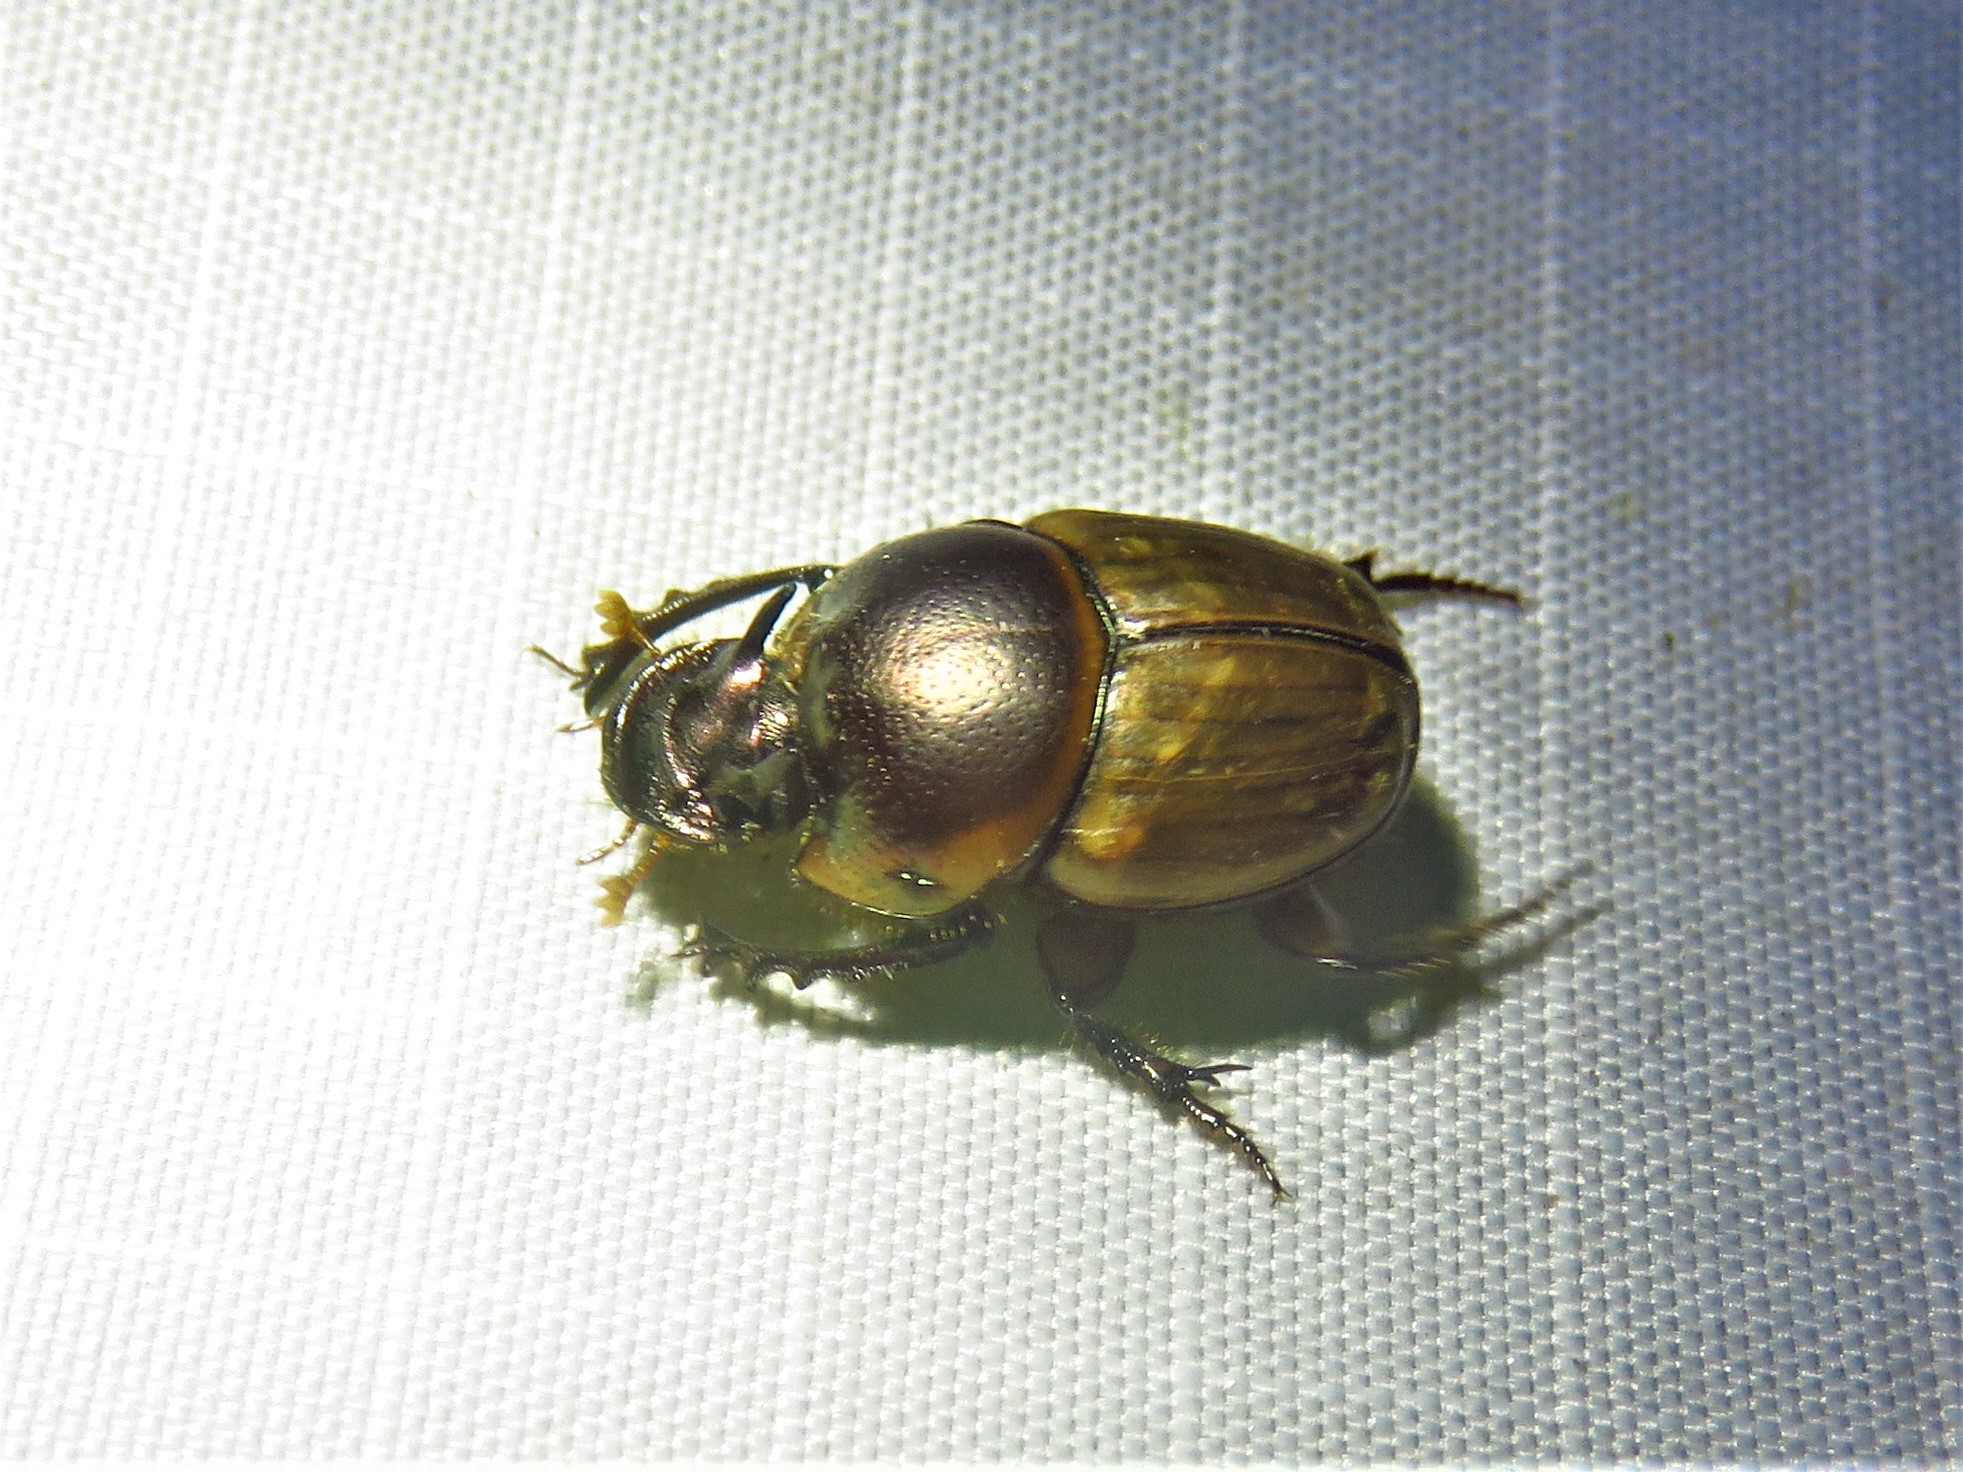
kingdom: Animalia
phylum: Arthropoda
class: Insecta
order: Coleoptera
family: Scarabaeidae
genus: Digitonthophagus
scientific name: Digitonthophagus gazella
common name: Brown dung beetle
